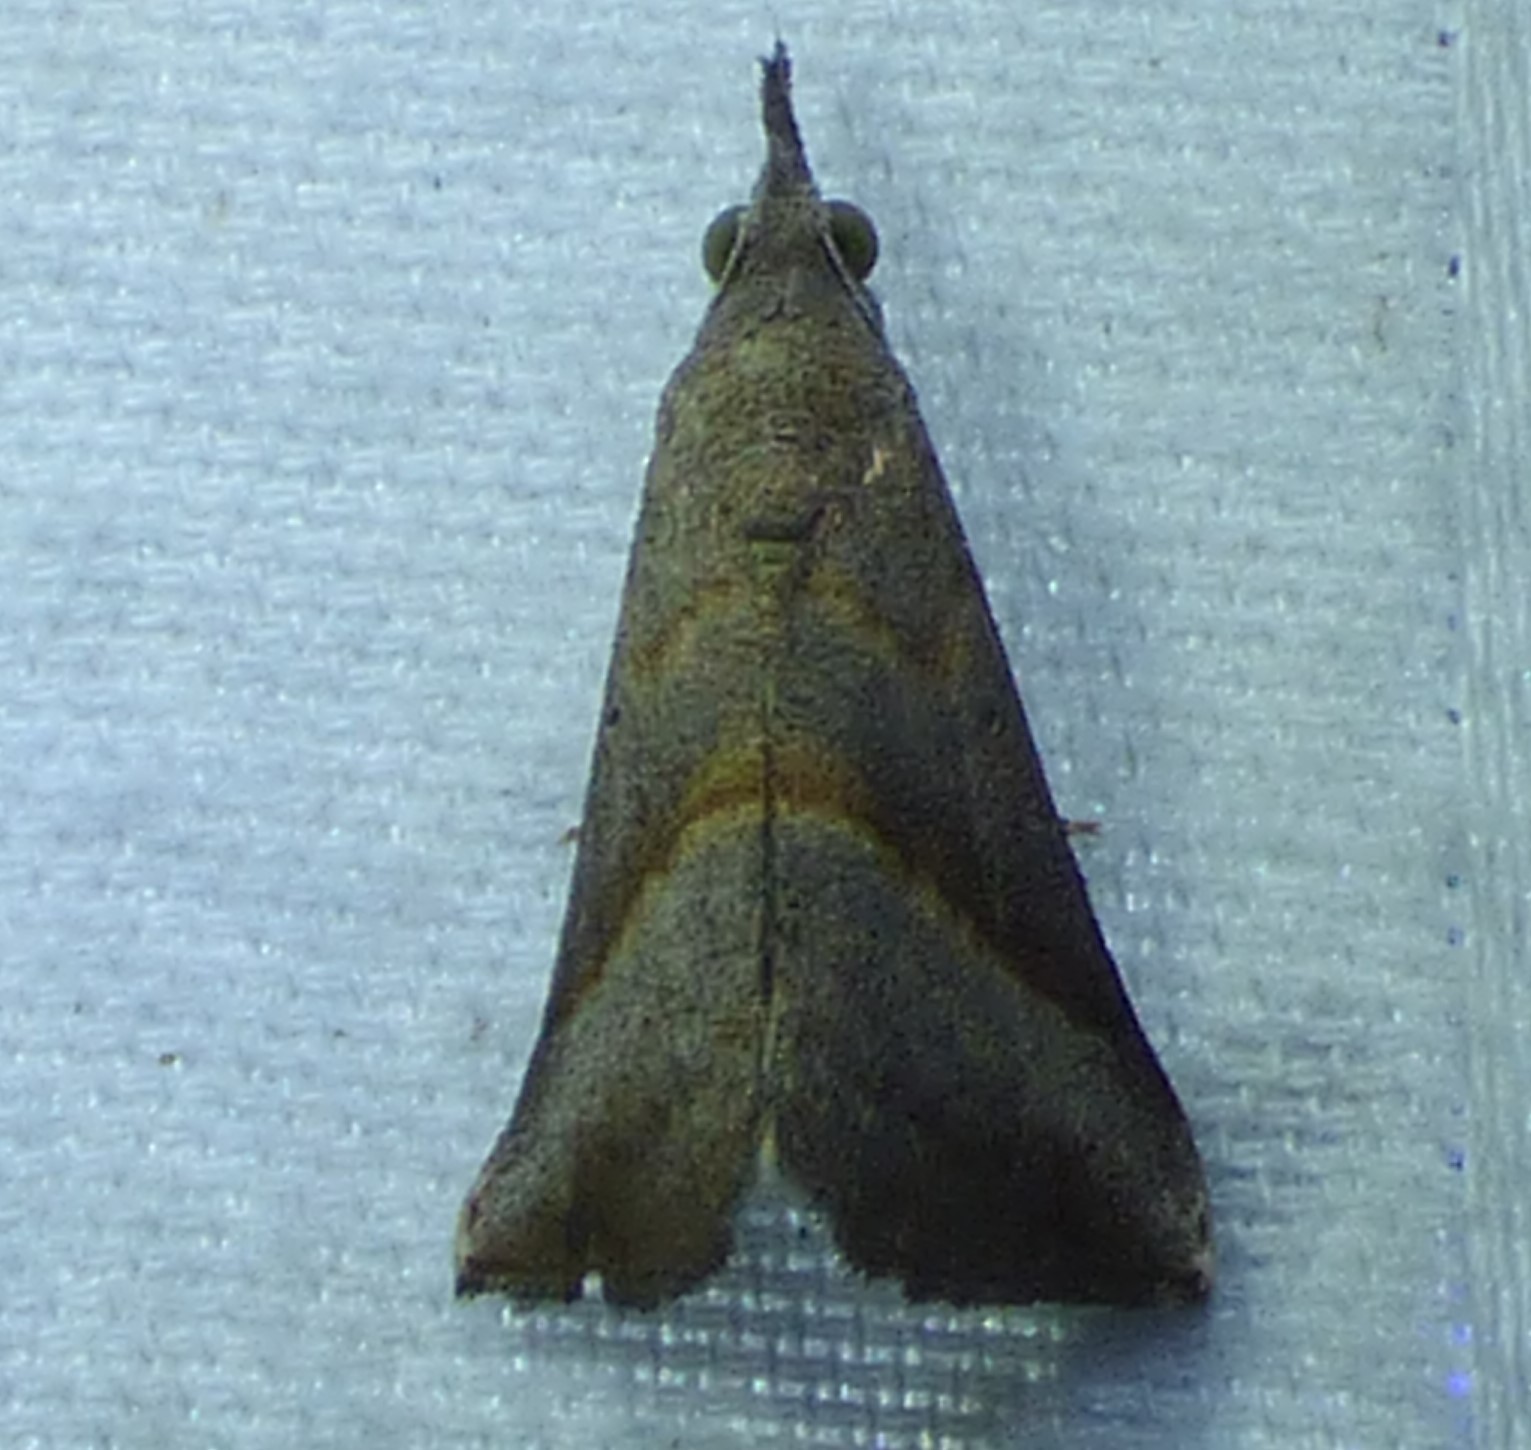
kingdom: Animalia
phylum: Arthropoda
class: Insecta
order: Lepidoptera
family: Erebidae
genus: Hypena
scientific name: Hypena degesalis
